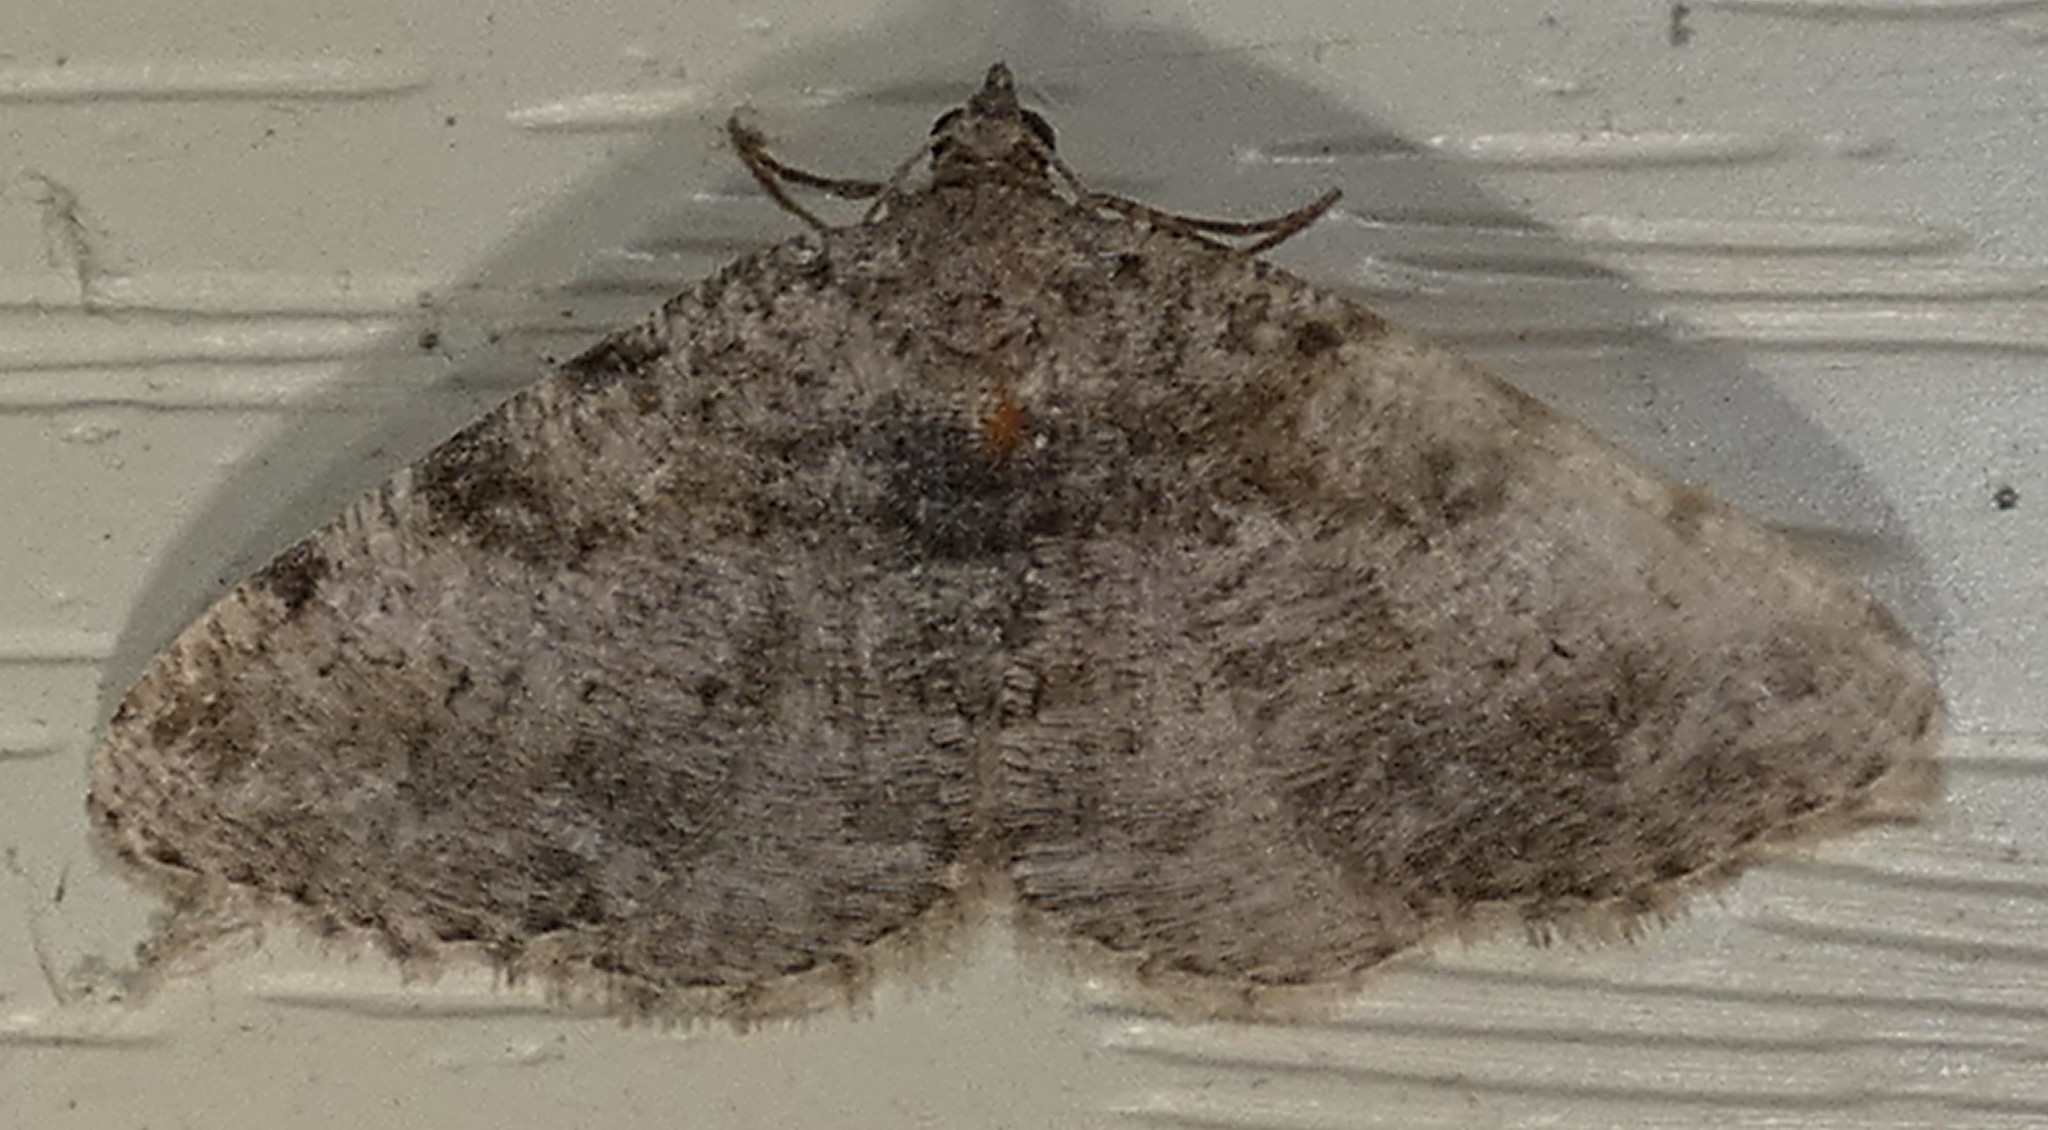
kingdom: Animalia
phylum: Arthropoda
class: Insecta
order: Lepidoptera
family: Geometridae
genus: Digrammia
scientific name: Digrammia gnophosaria
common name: Hollow-spotted angle
